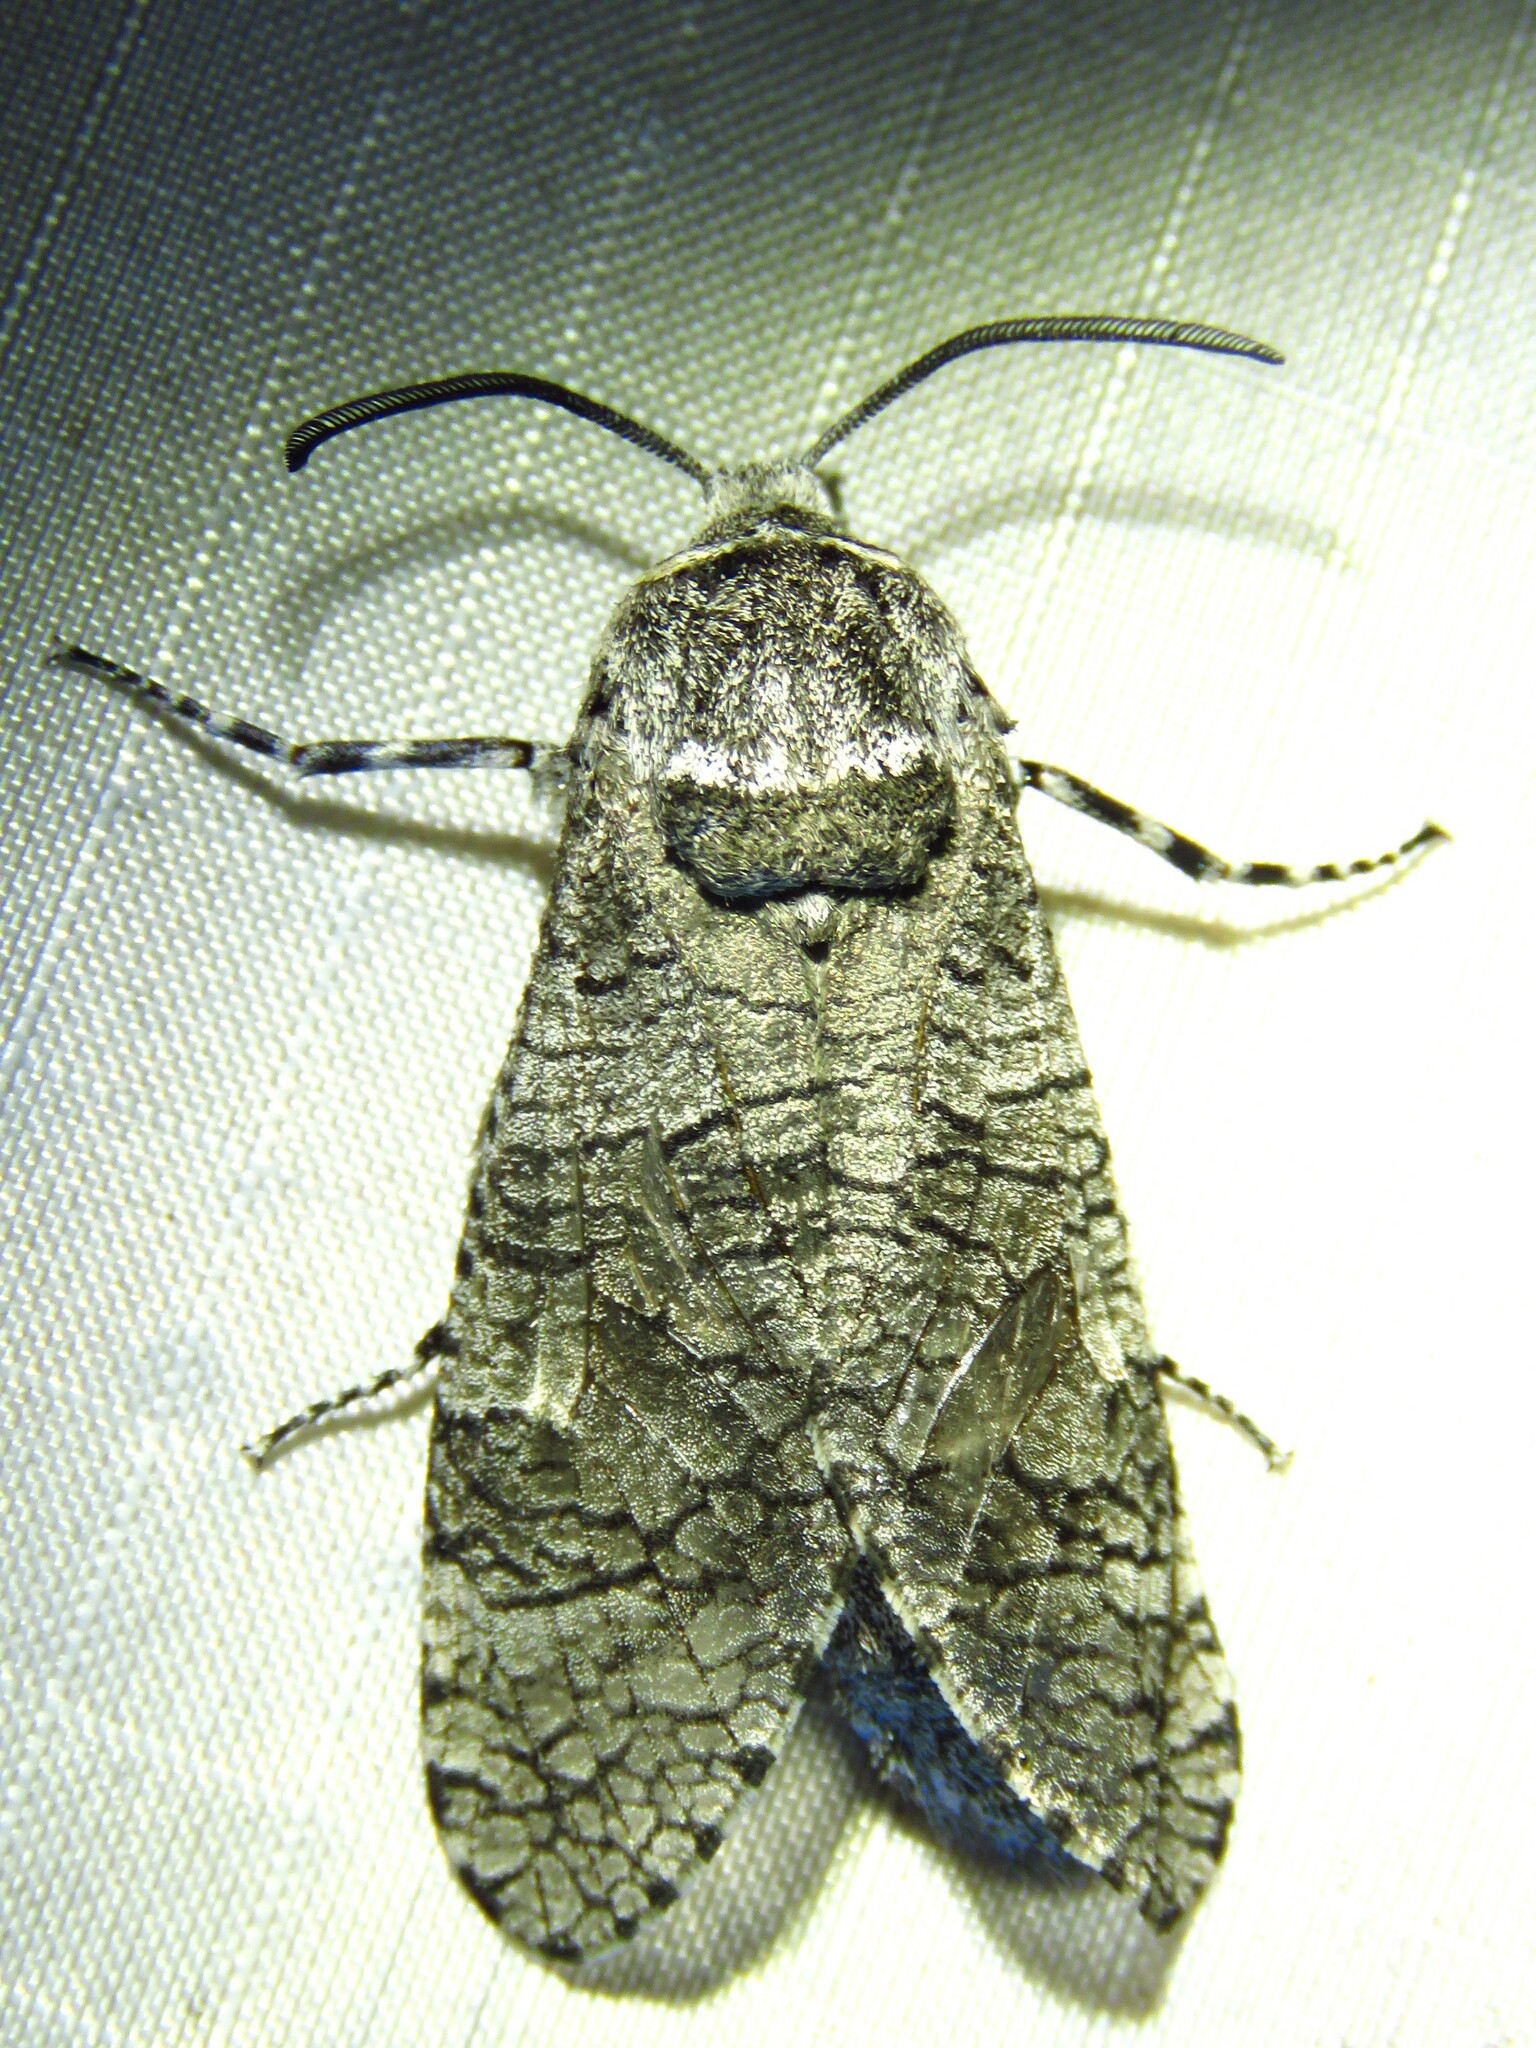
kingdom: Animalia
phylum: Arthropoda
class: Insecta
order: Lepidoptera
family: Cossidae
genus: Prionoxystus
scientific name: Prionoxystus macmurtrei
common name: Little carpenterworm
